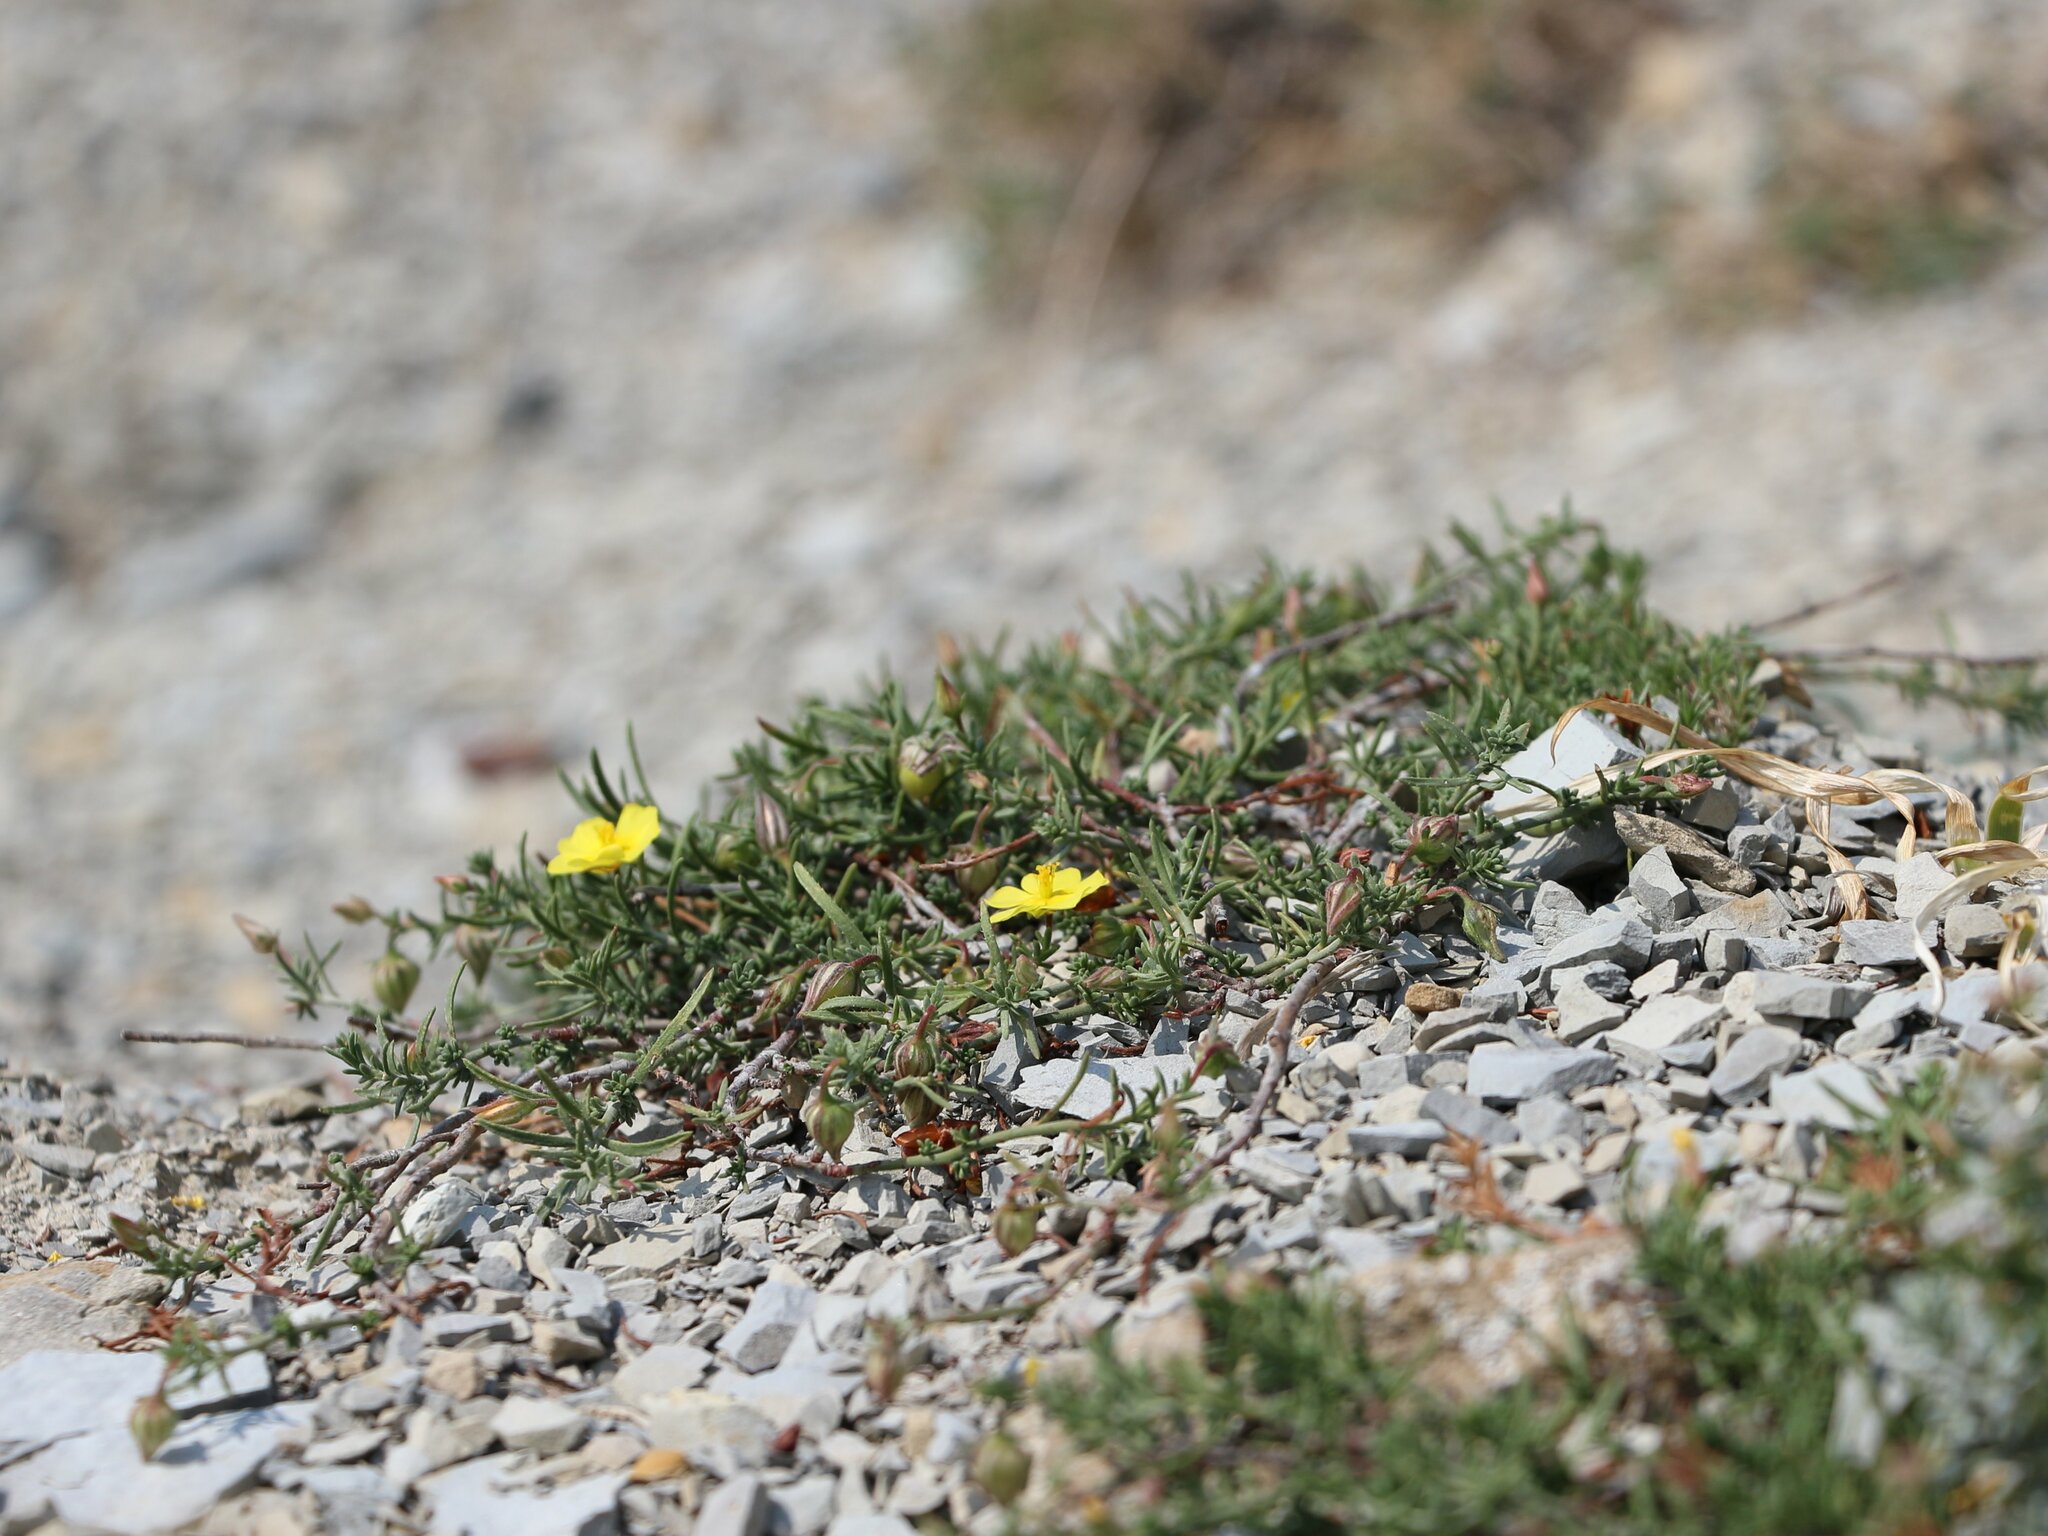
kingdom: Plantae
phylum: Tracheophyta
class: Magnoliopsida
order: Malvales
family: Cistaceae
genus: Fumana
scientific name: Fumana procumbens
